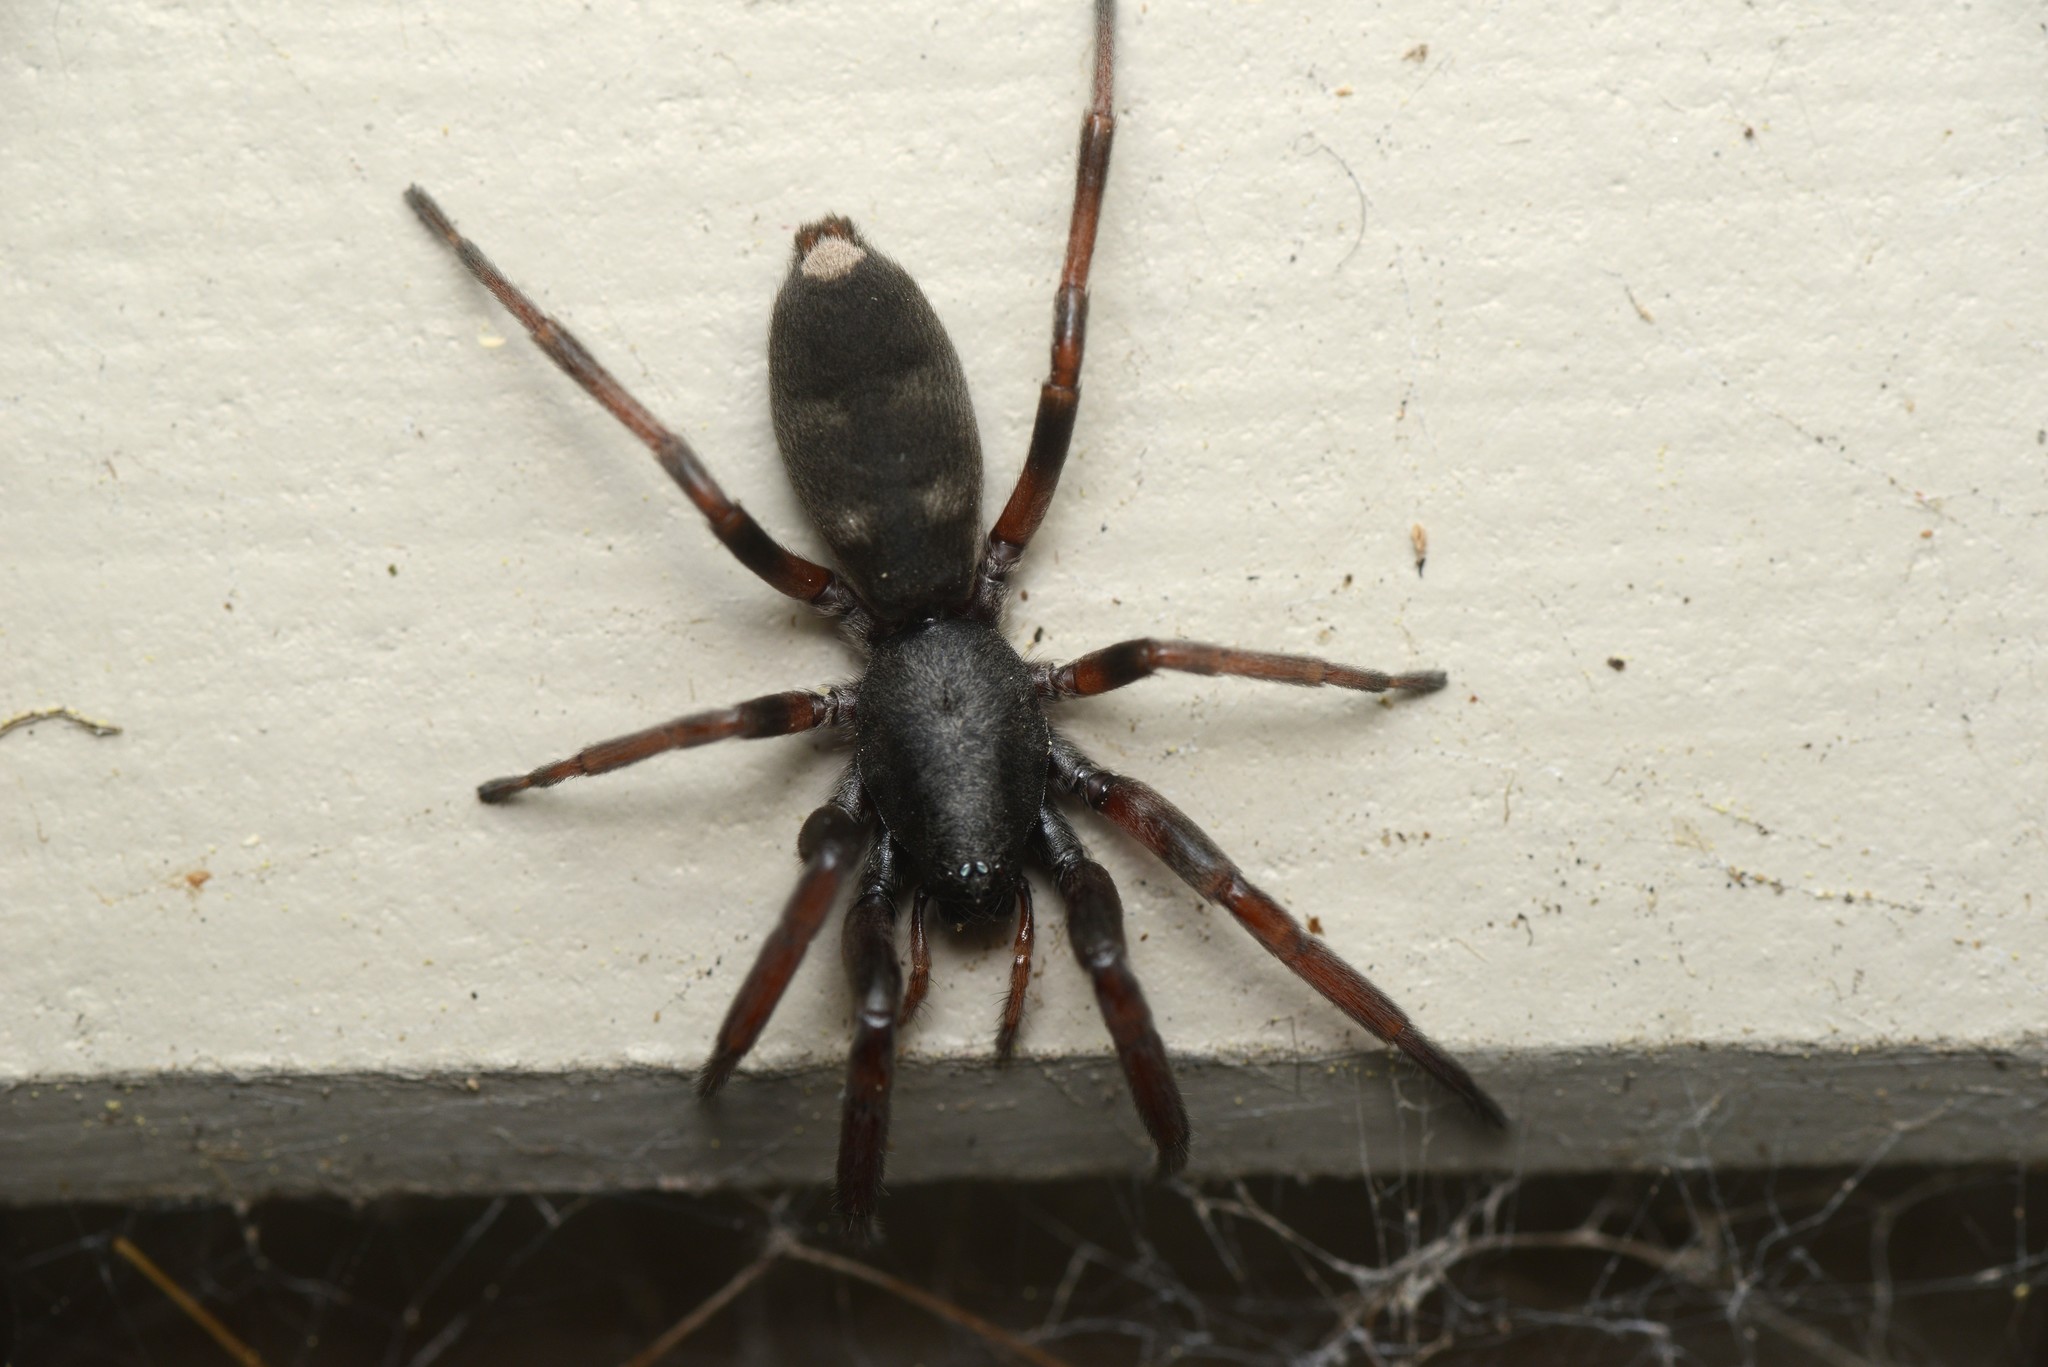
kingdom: Animalia
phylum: Arthropoda
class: Arachnida
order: Araneae
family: Lamponidae
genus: Lampona
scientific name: Lampona cylindrata
